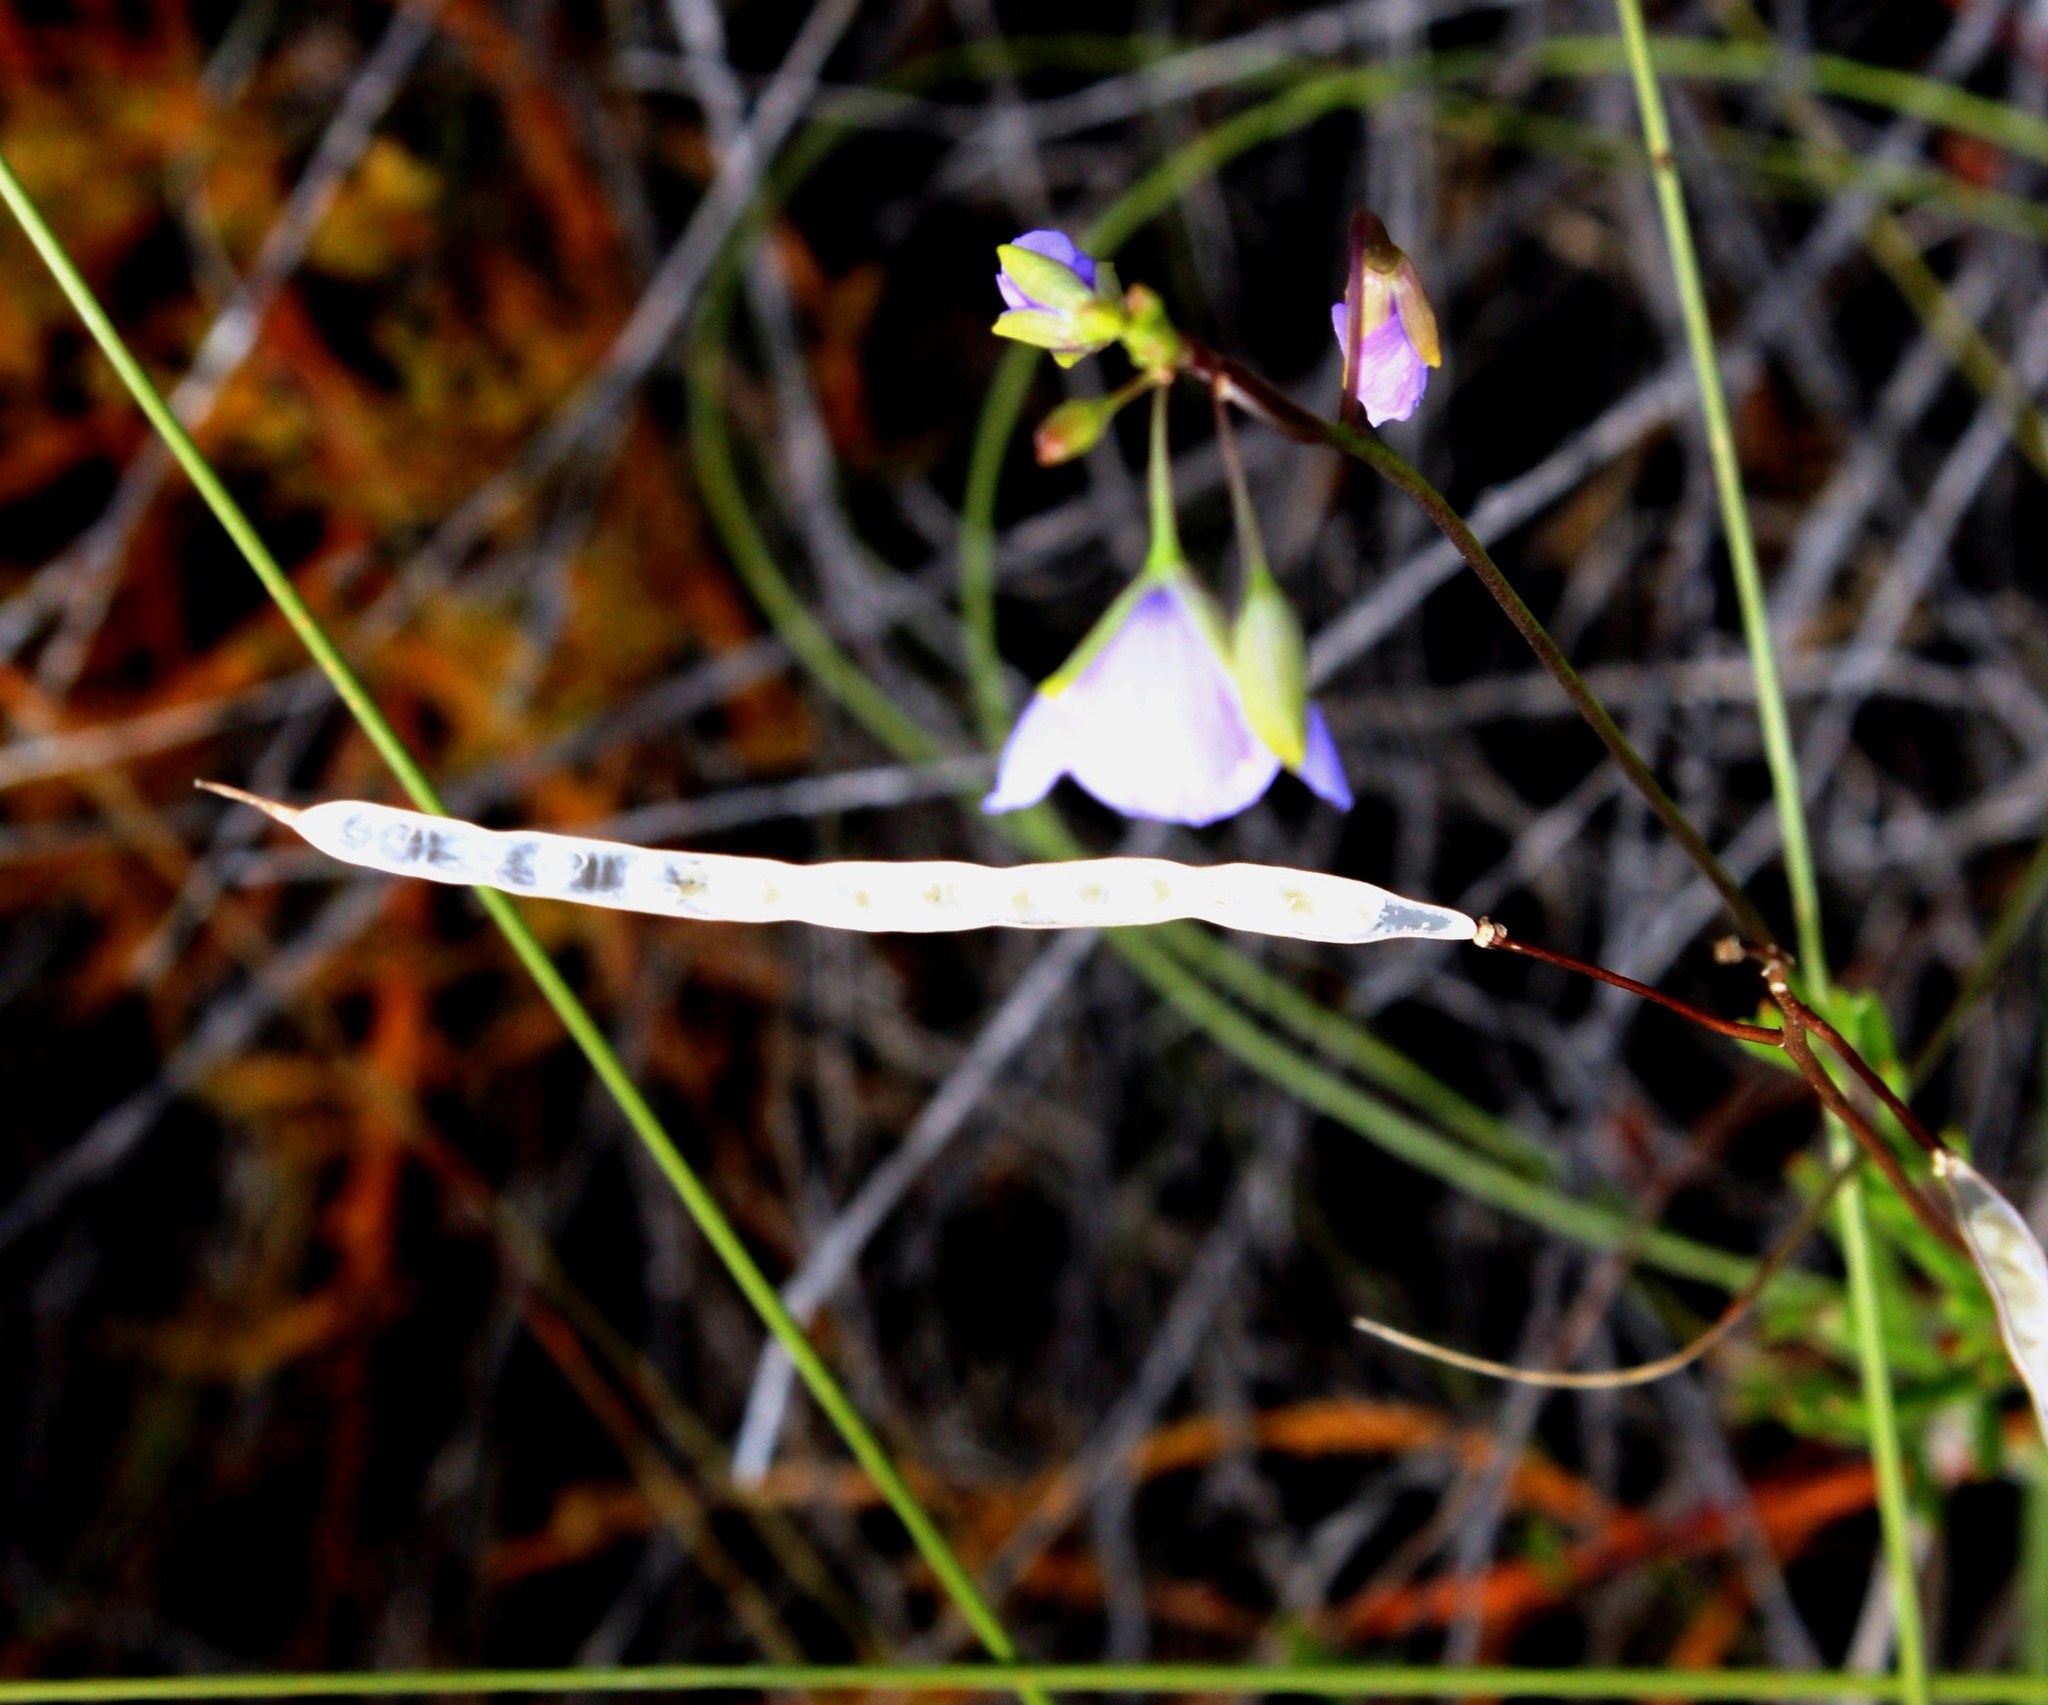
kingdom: Plantae
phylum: Tracheophyta
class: Magnoliopsida
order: Brassicales
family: Brassicaceae
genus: Heliophila
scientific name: Heliophila subulata
